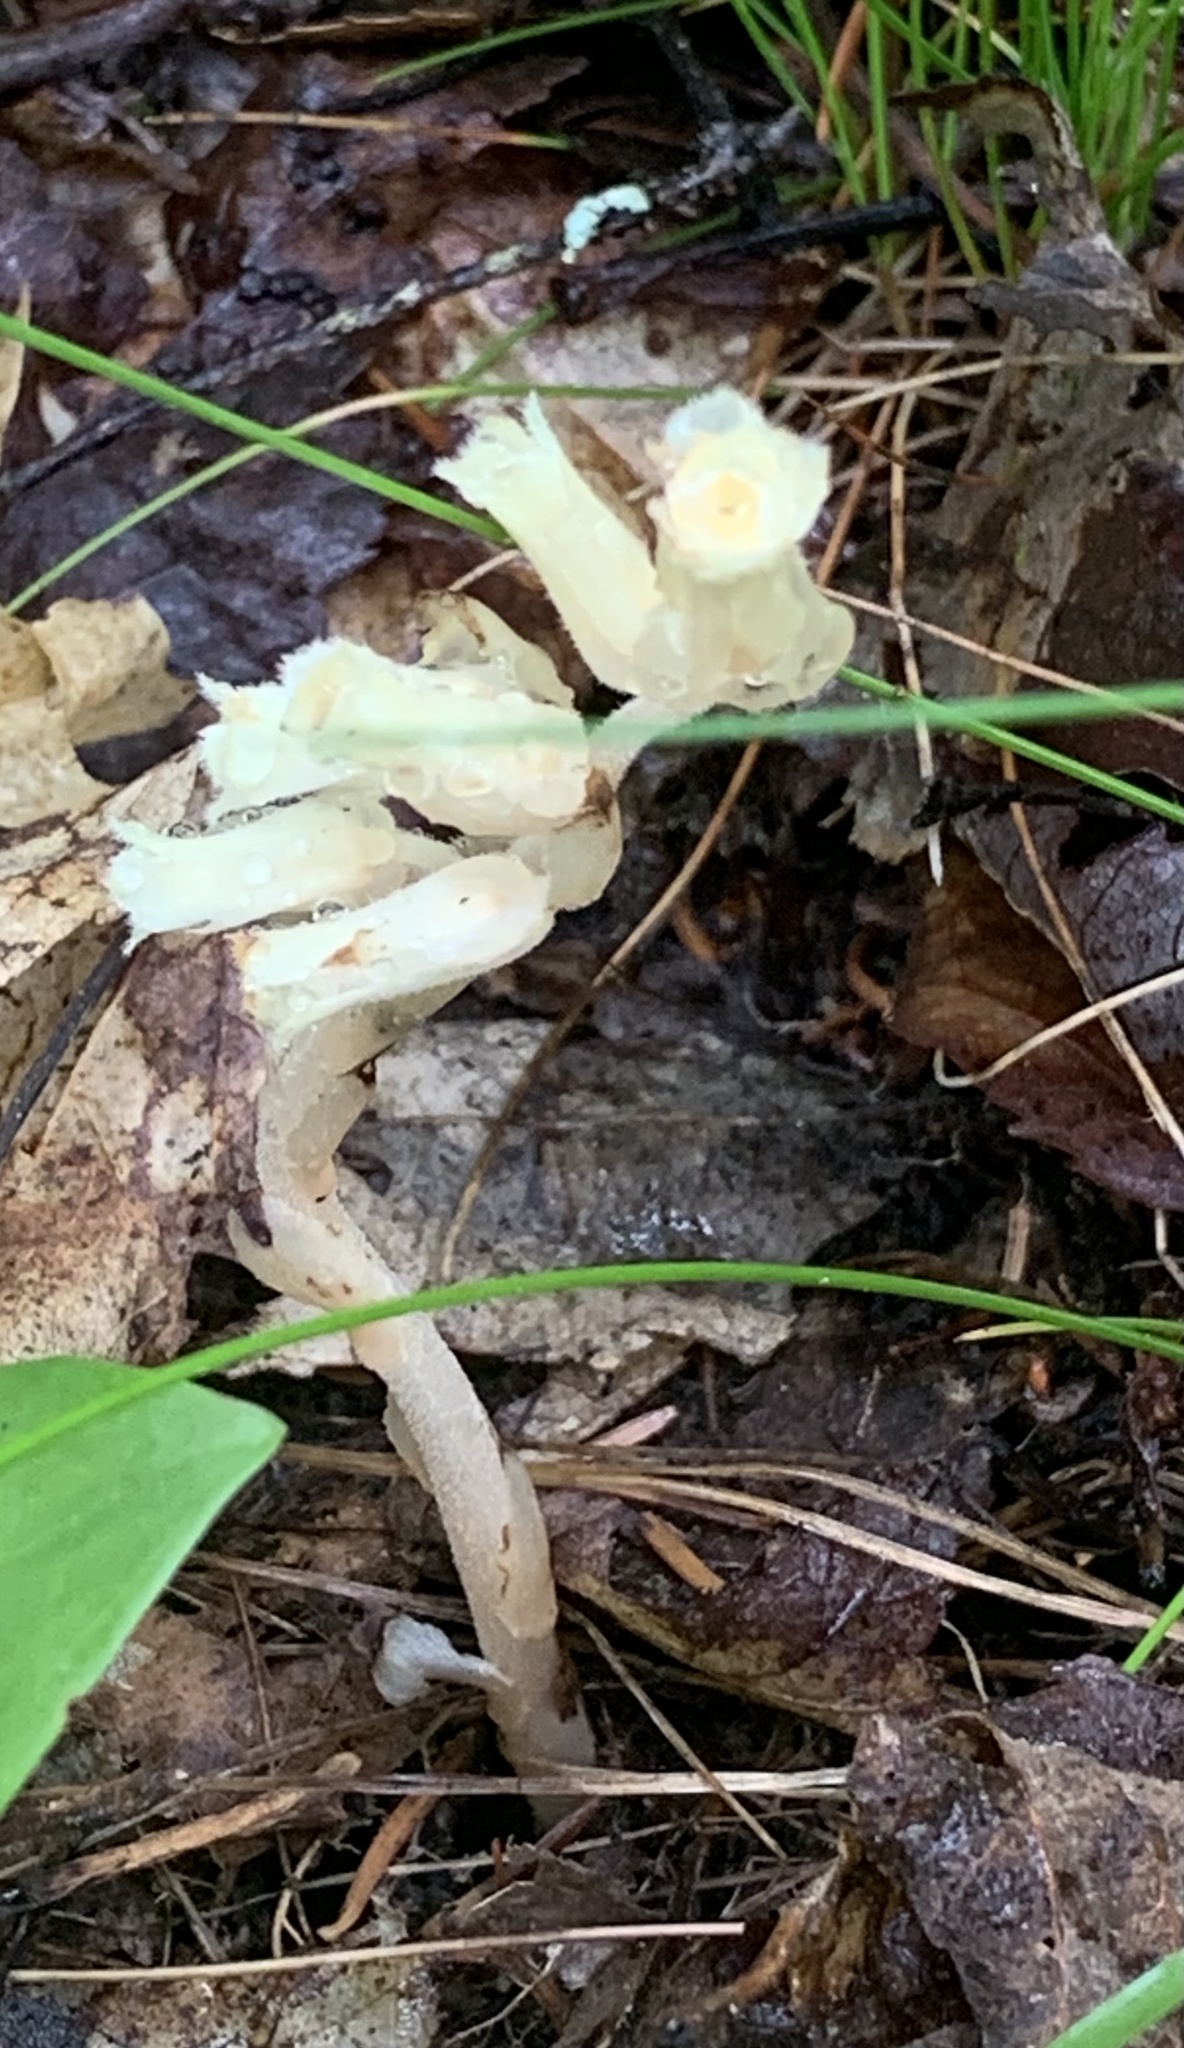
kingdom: Plantae
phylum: Tracheophyta
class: Magnoliopsida
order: Ericales
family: Ericaceae
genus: Hypopitys
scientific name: Hypopitys monotropa
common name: Yellow bird's-nest
